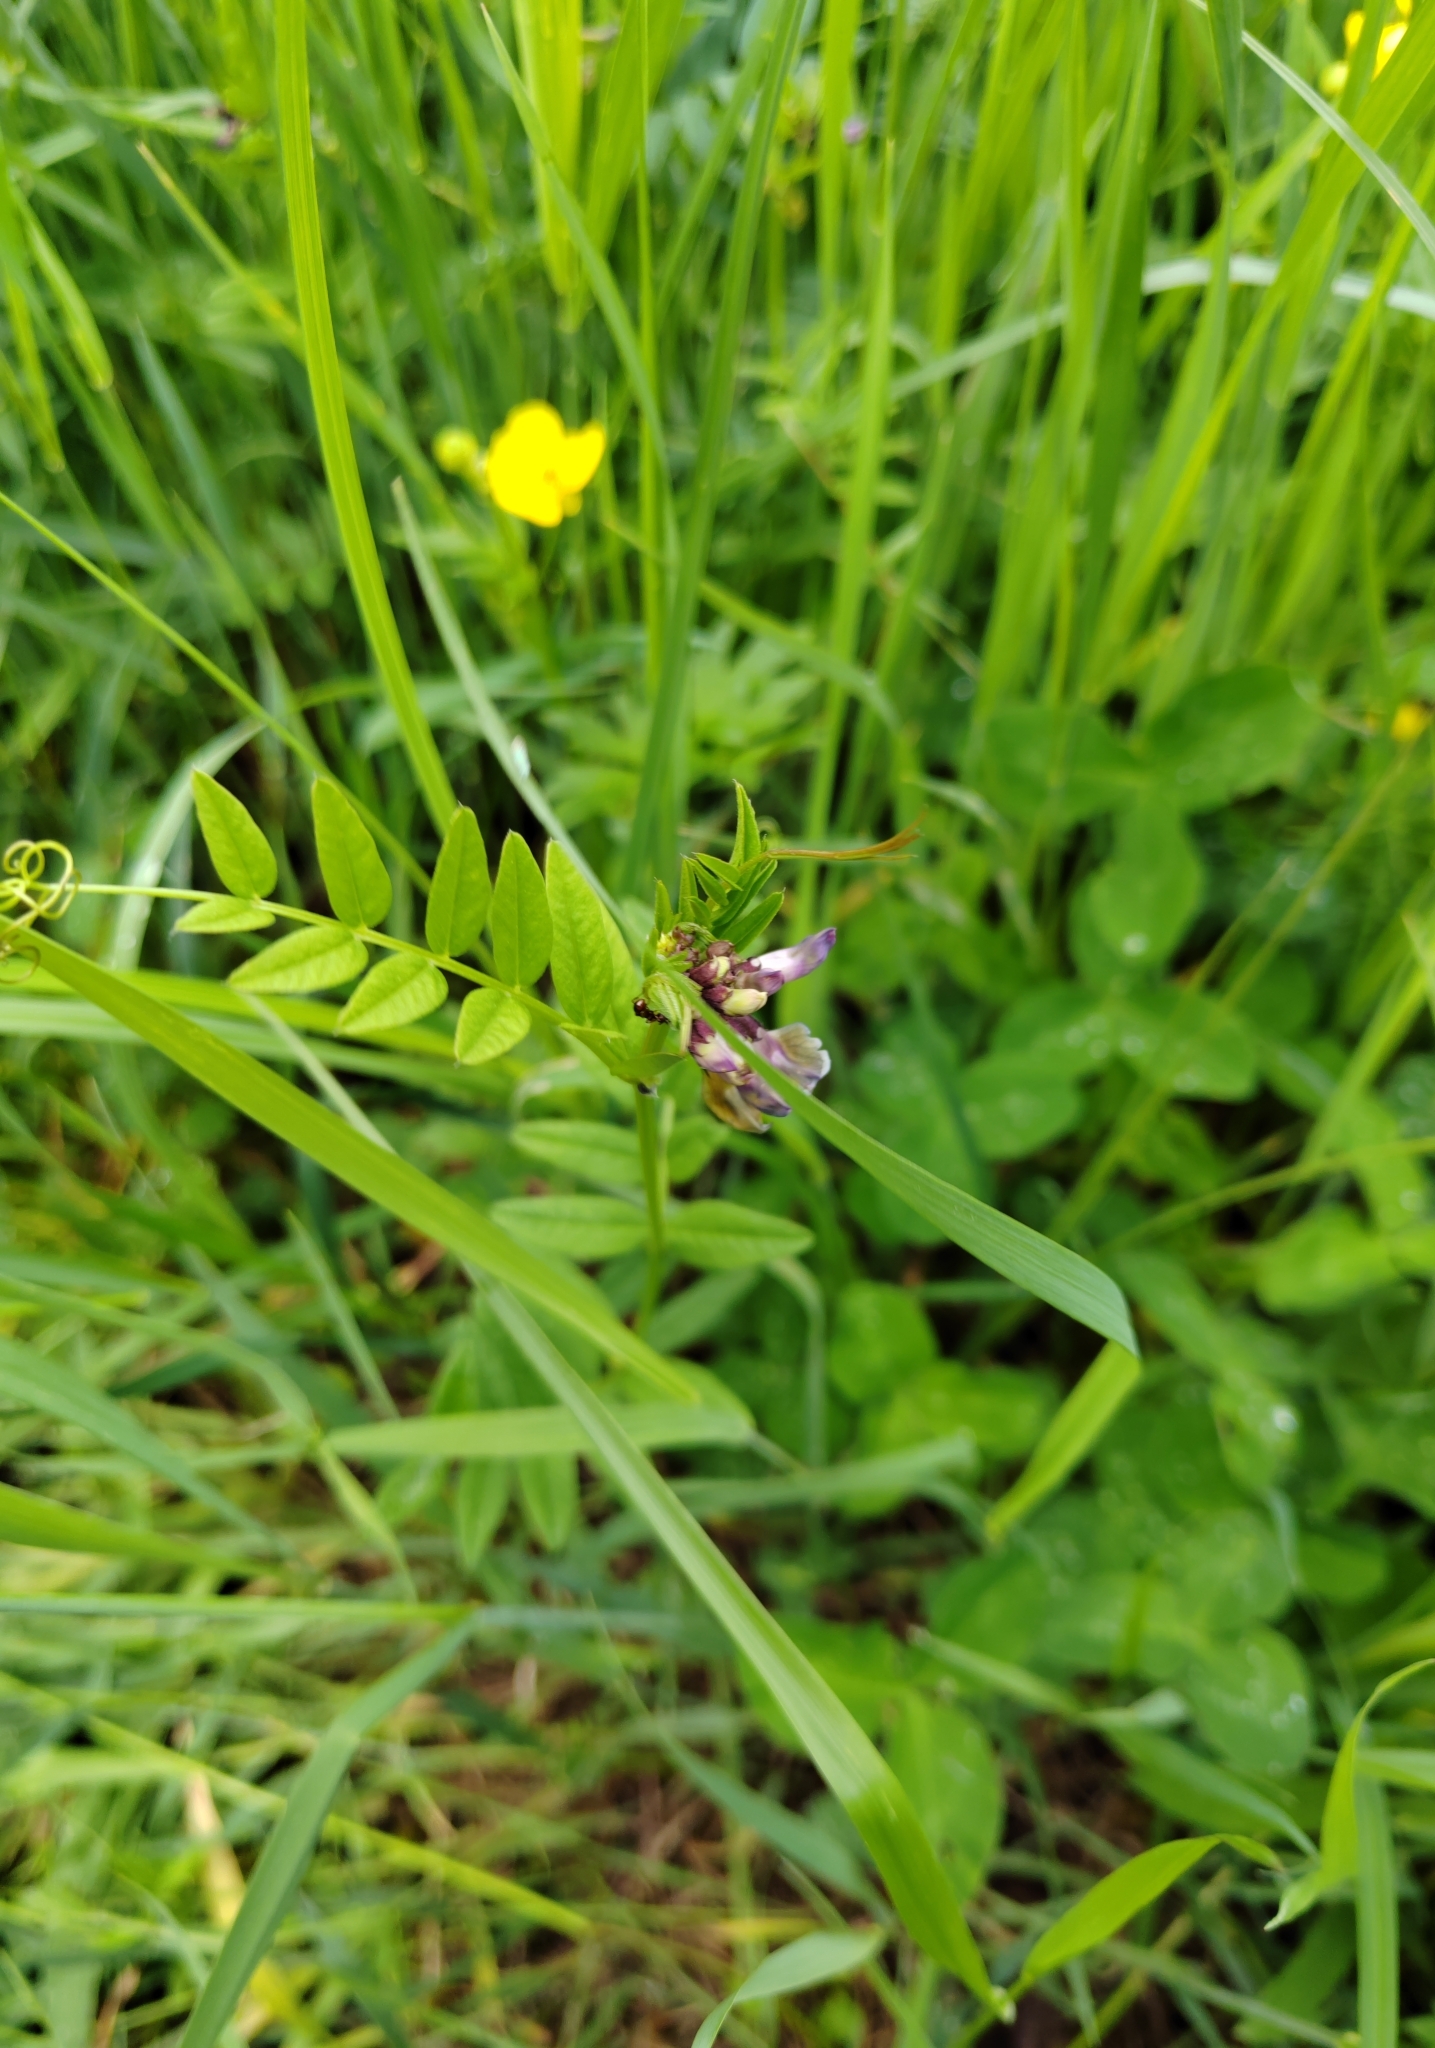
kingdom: Plantae
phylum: Tracheophyta
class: Magnoliopsida
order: Fabales
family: Fabaceae
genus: Vicia
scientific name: Vicia sepium
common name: Bush vetch
